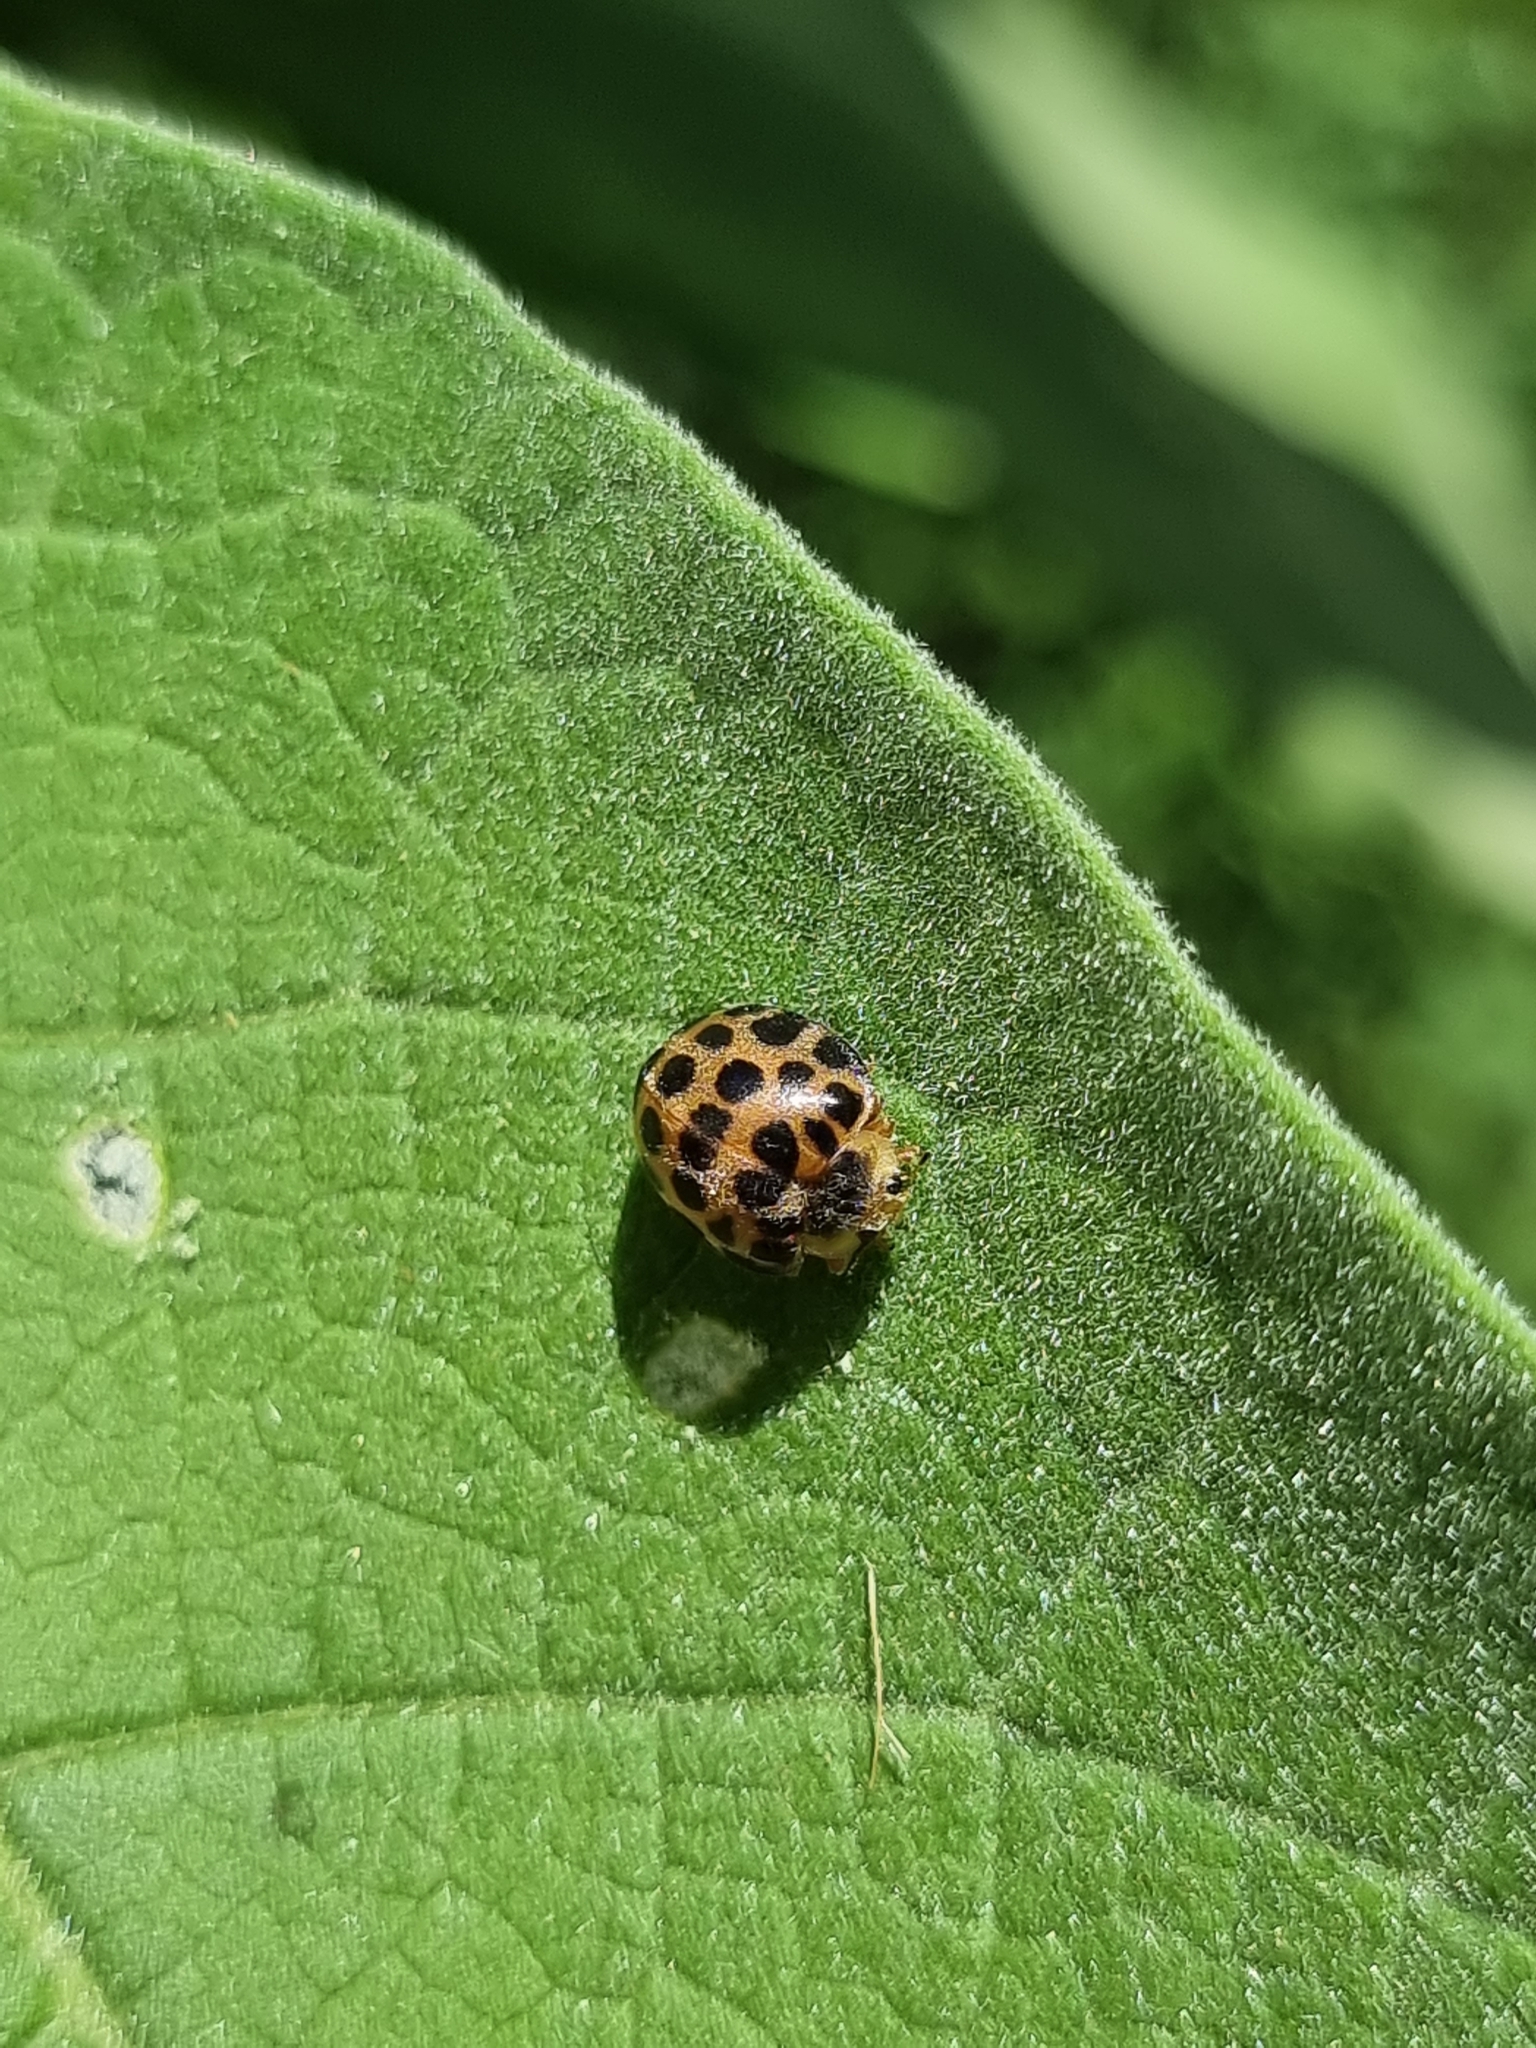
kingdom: Animalia
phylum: Arthropoda
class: Insecta
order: Coleoptera
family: Coccinellidae
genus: Henosepilachna
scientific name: Henosepilachna vigintisexpunctata
